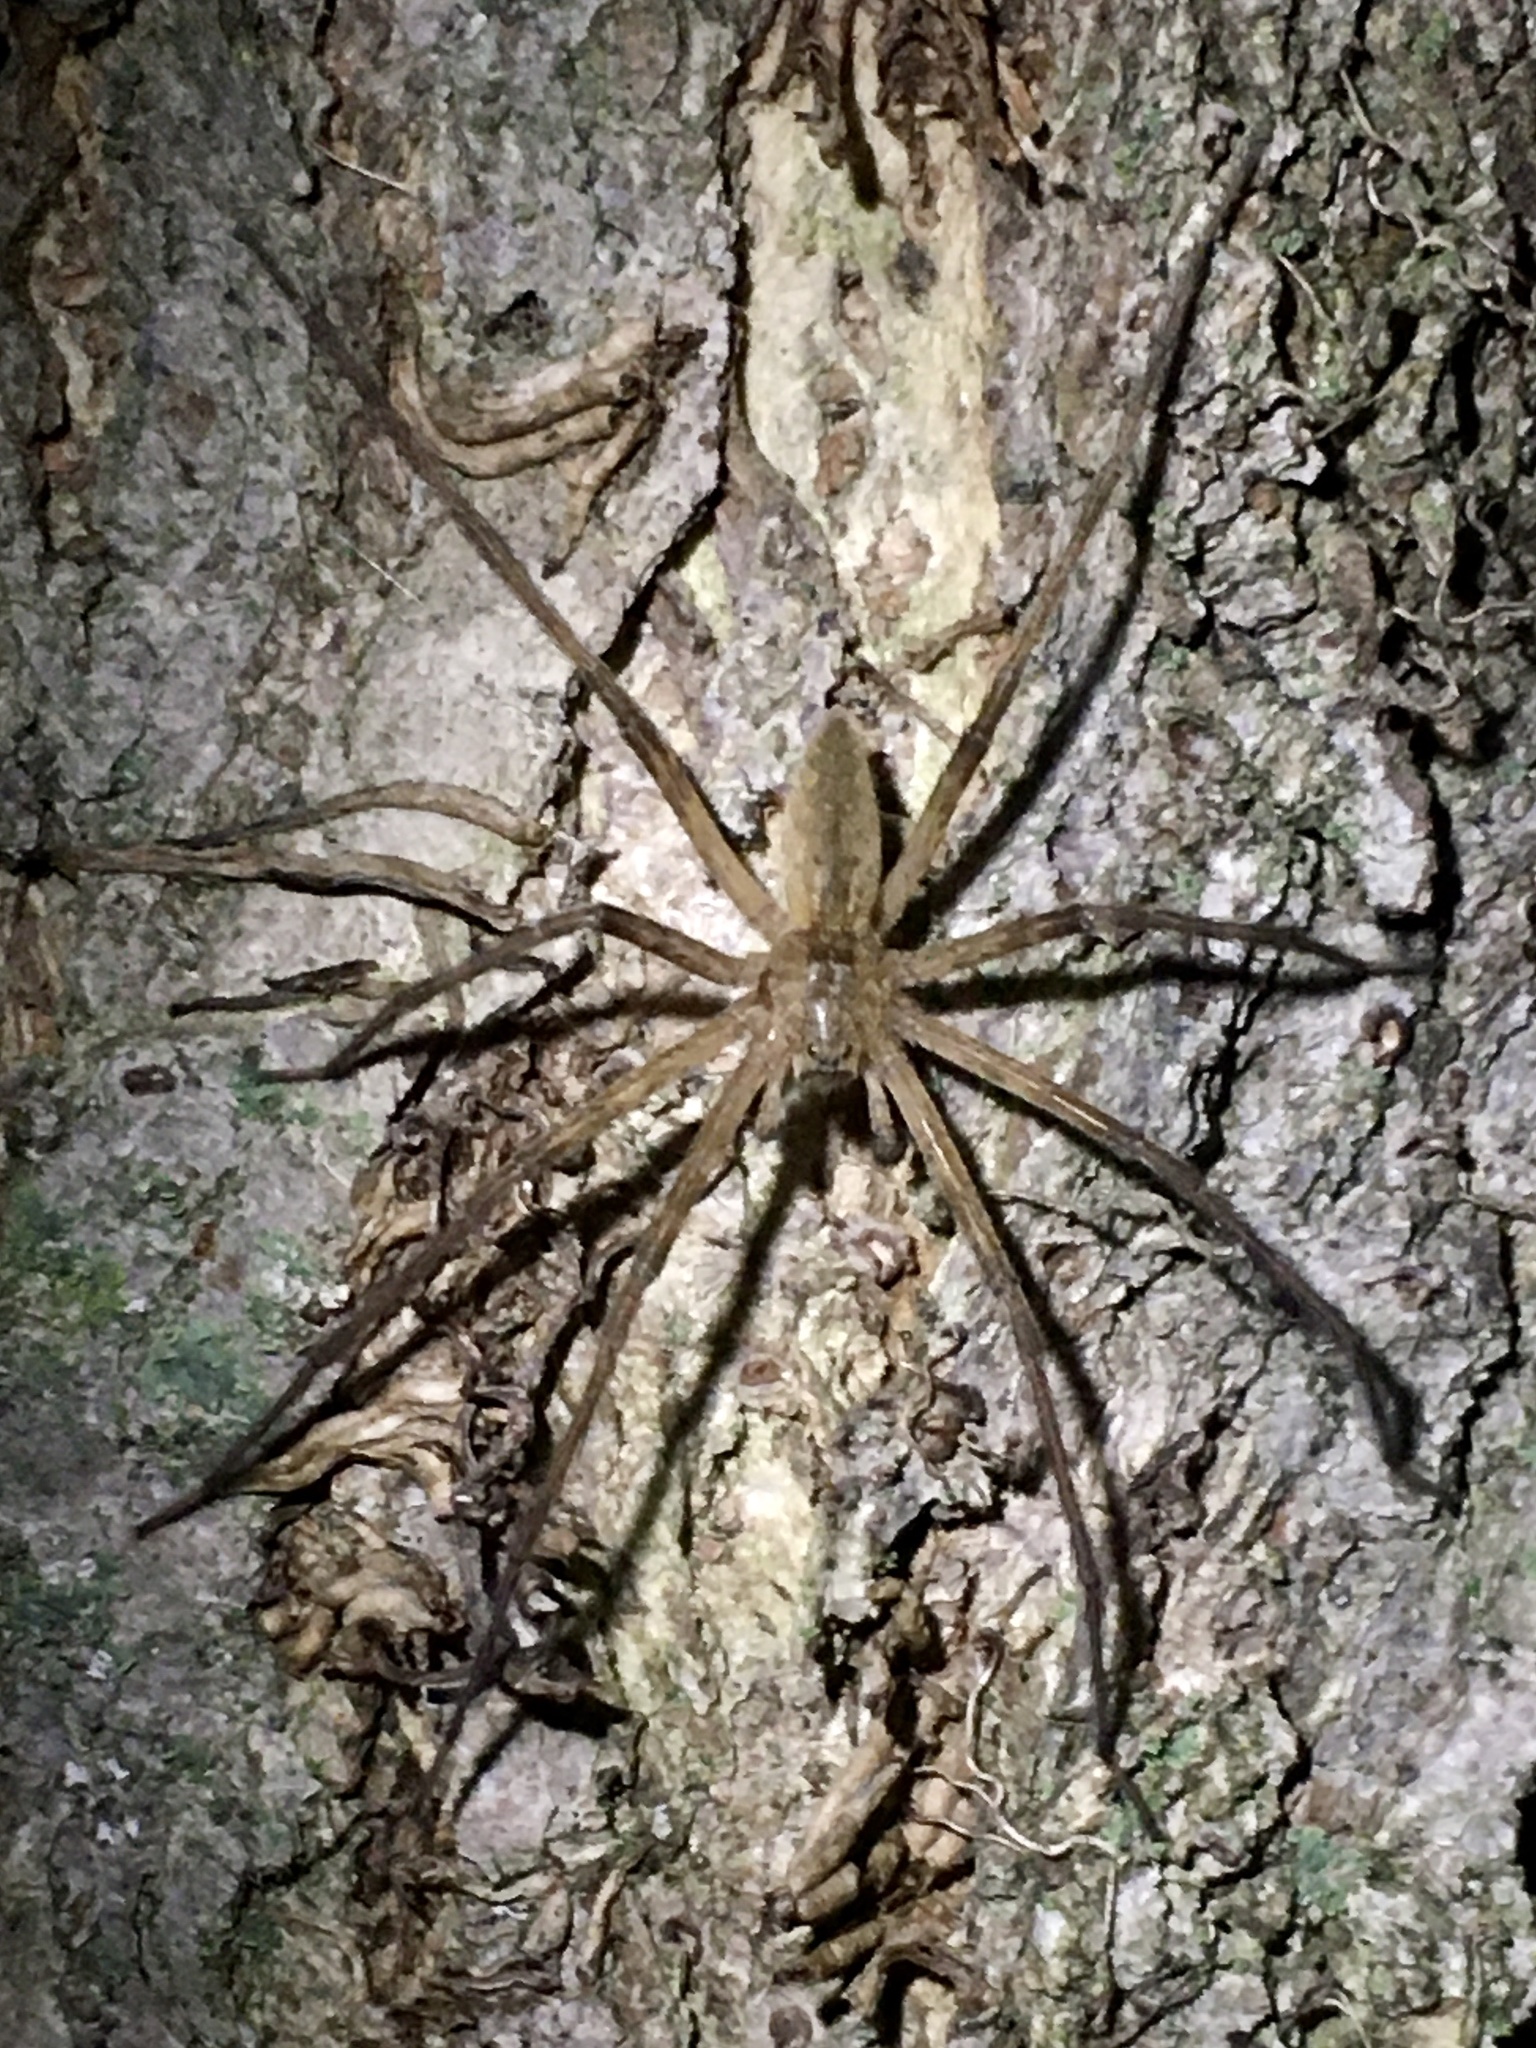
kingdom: Animalia
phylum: Arthropoda
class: Arachnida
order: Araneae
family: Pisauridae
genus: Pisaurina
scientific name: Pisaurina mira
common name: American nursery web spider
